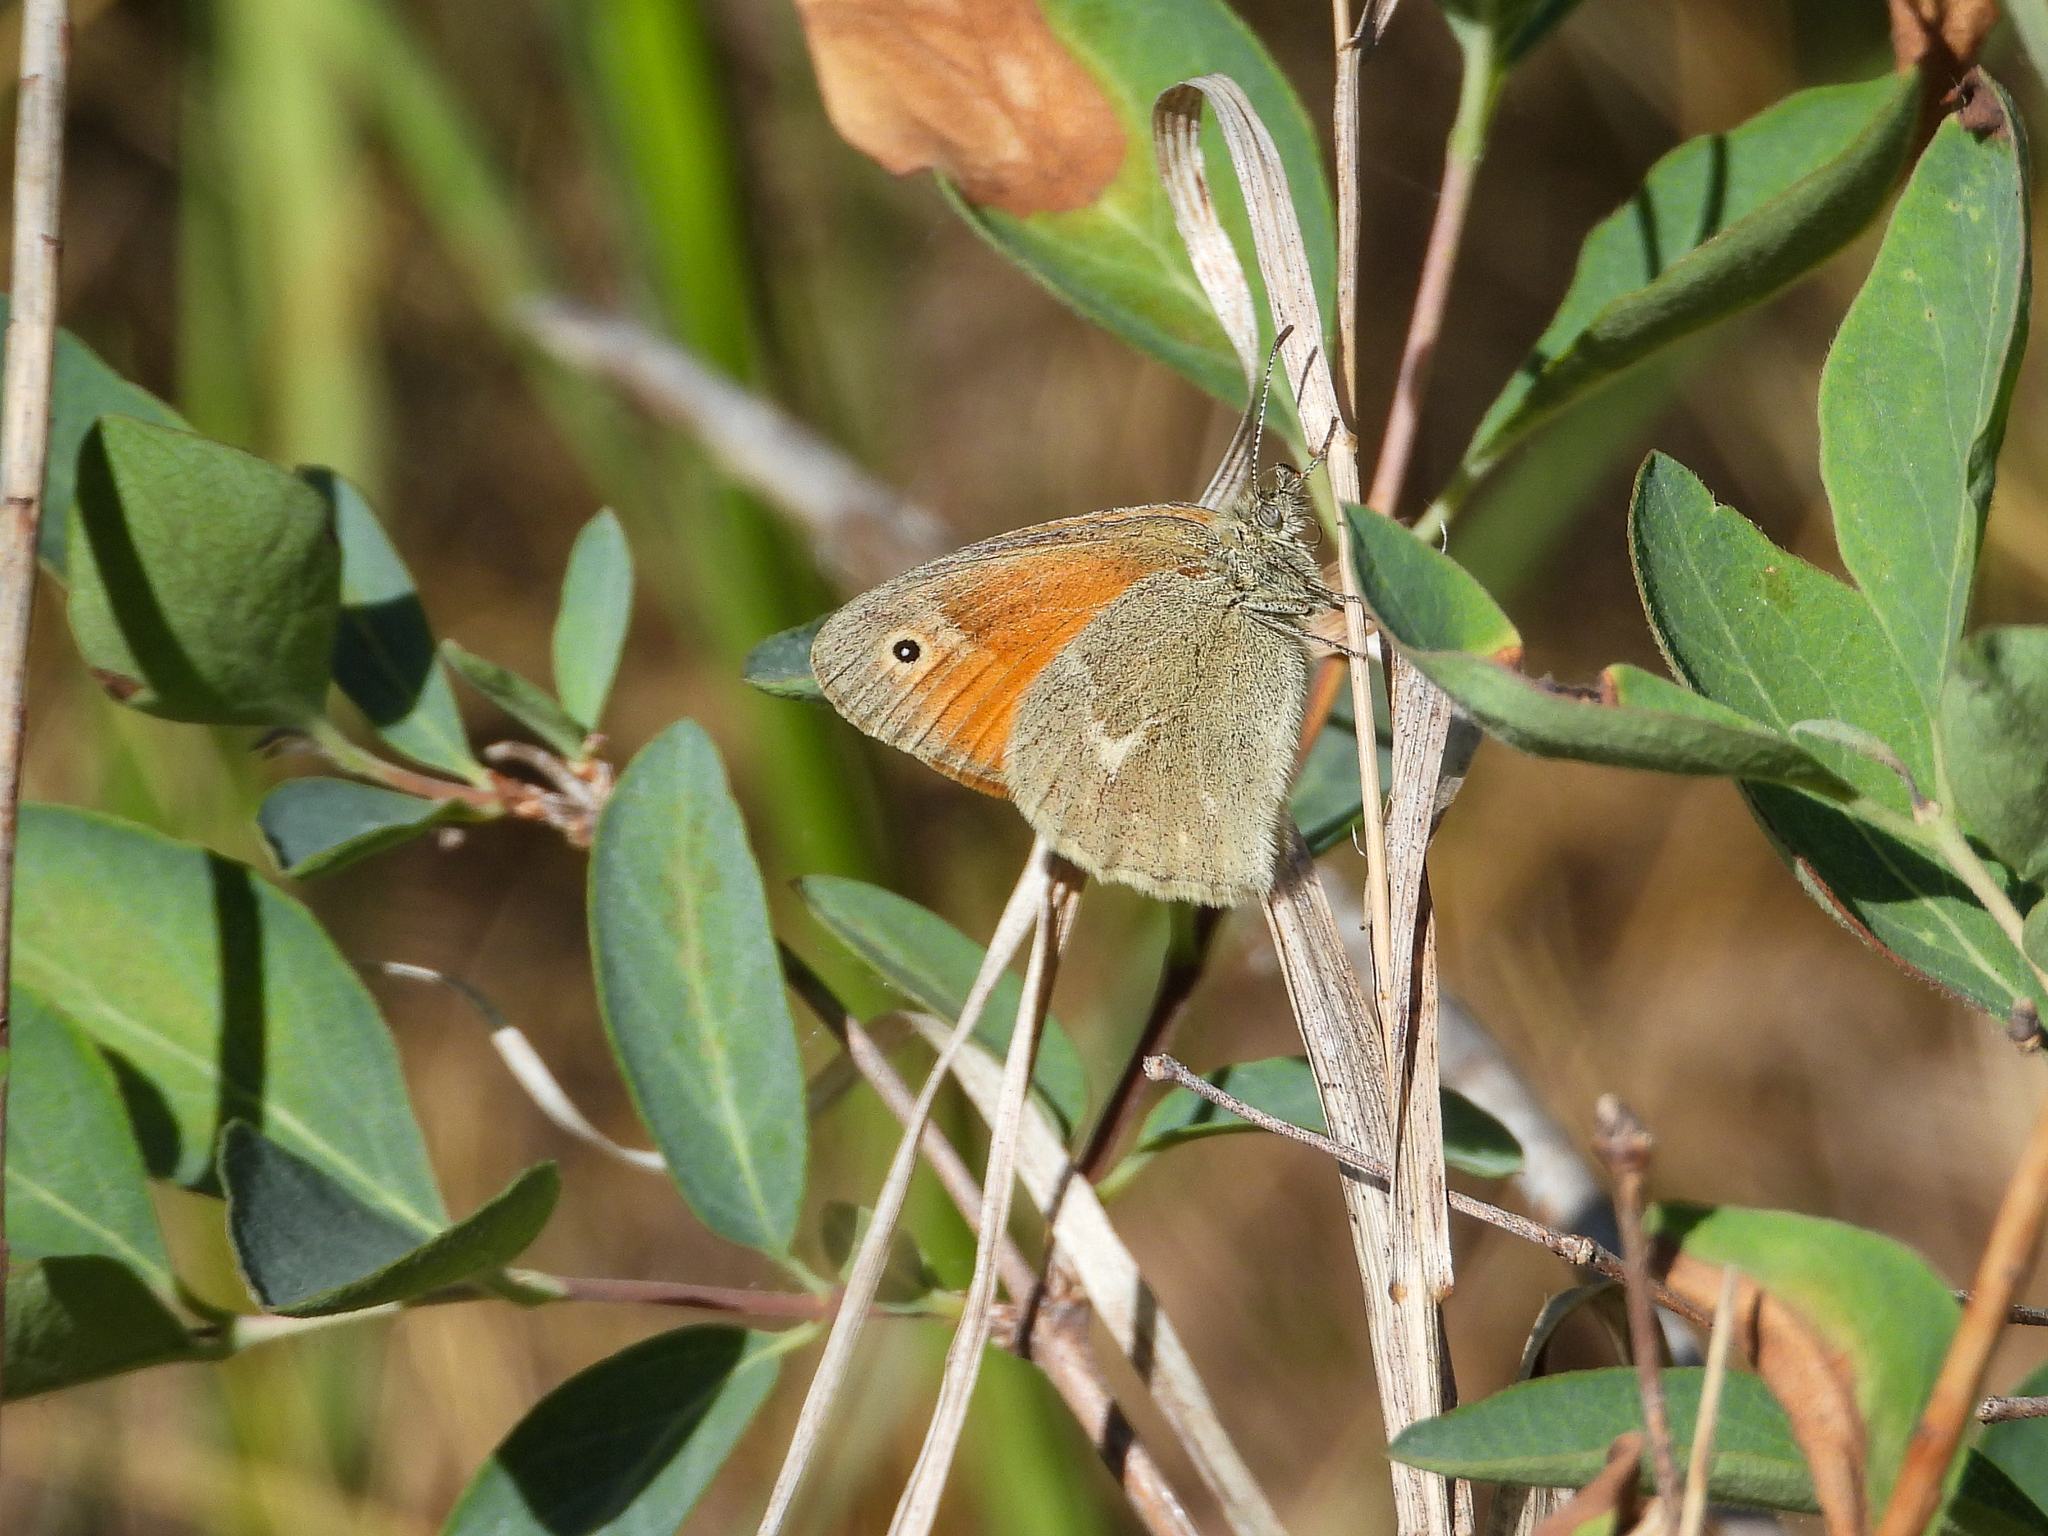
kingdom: Animalia
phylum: Arthropoda
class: Insecta
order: Lepidoptera
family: Nymphalidae
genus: Coenonympha
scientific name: Coenonympha california
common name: Common ringlet
